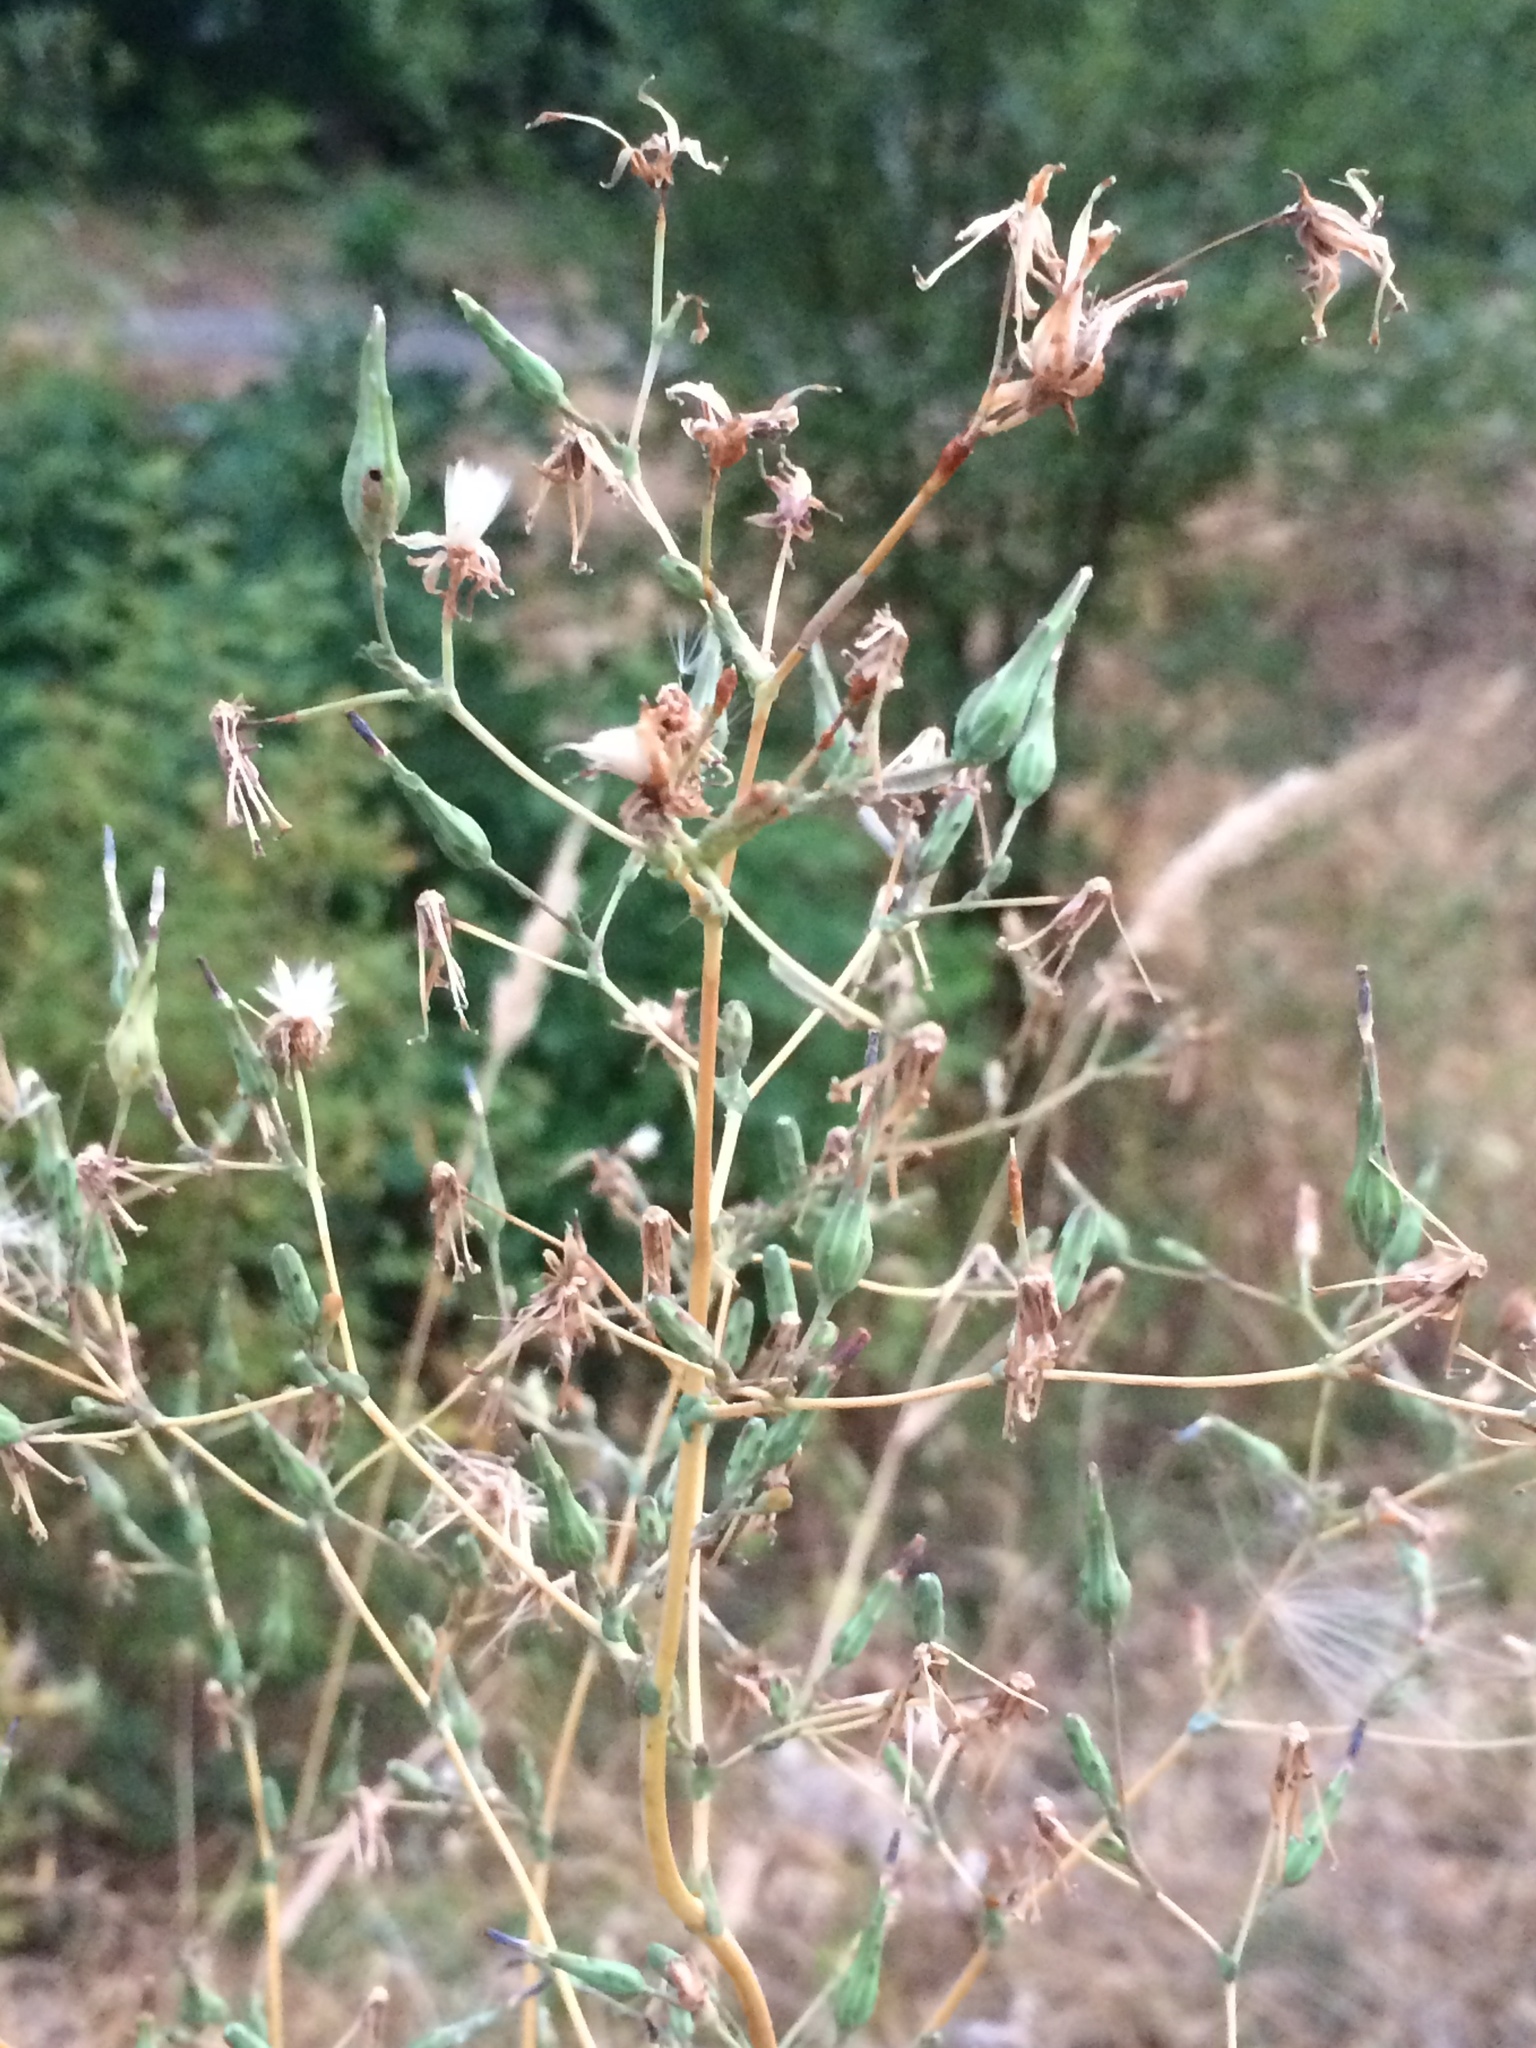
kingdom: Plantae
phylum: Tracheophyta
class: Magnoliopsida
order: Asterales
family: Asteraceae
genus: Lactuca
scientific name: Lactuca serriola
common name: Prickly lettuce
